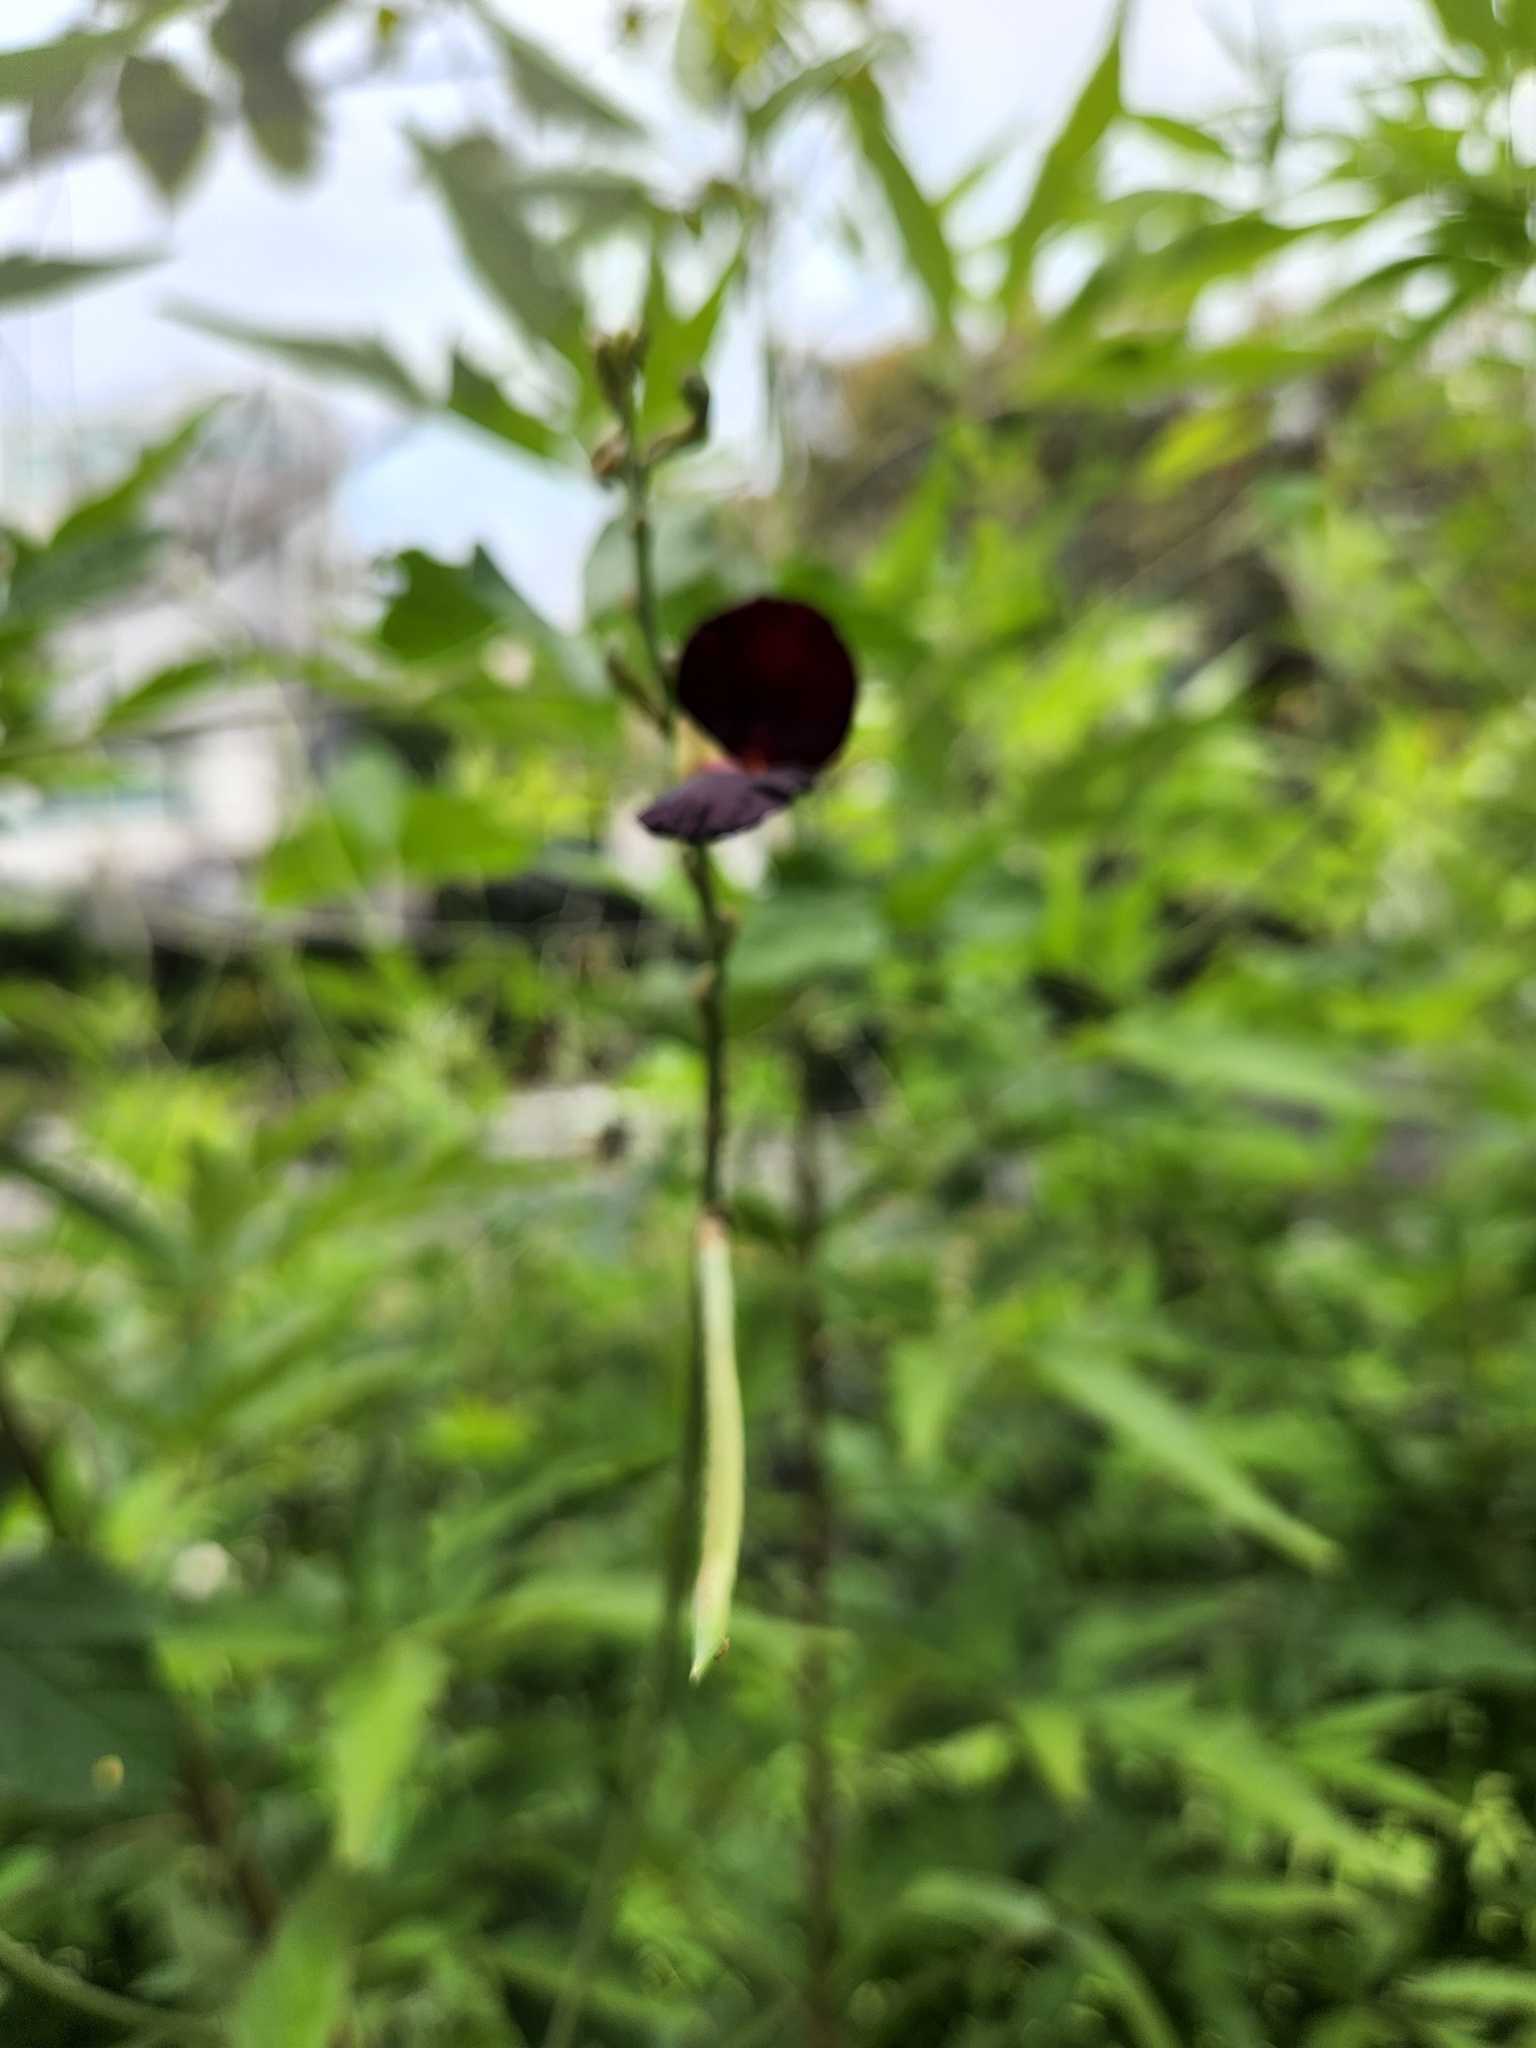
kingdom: Plantae
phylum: Tracheophyta
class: Magnoliopsida
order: Fabales
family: Fabaceae
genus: Macroptilium
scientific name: Macroptilium atropurpureum
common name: Purple bushbean
